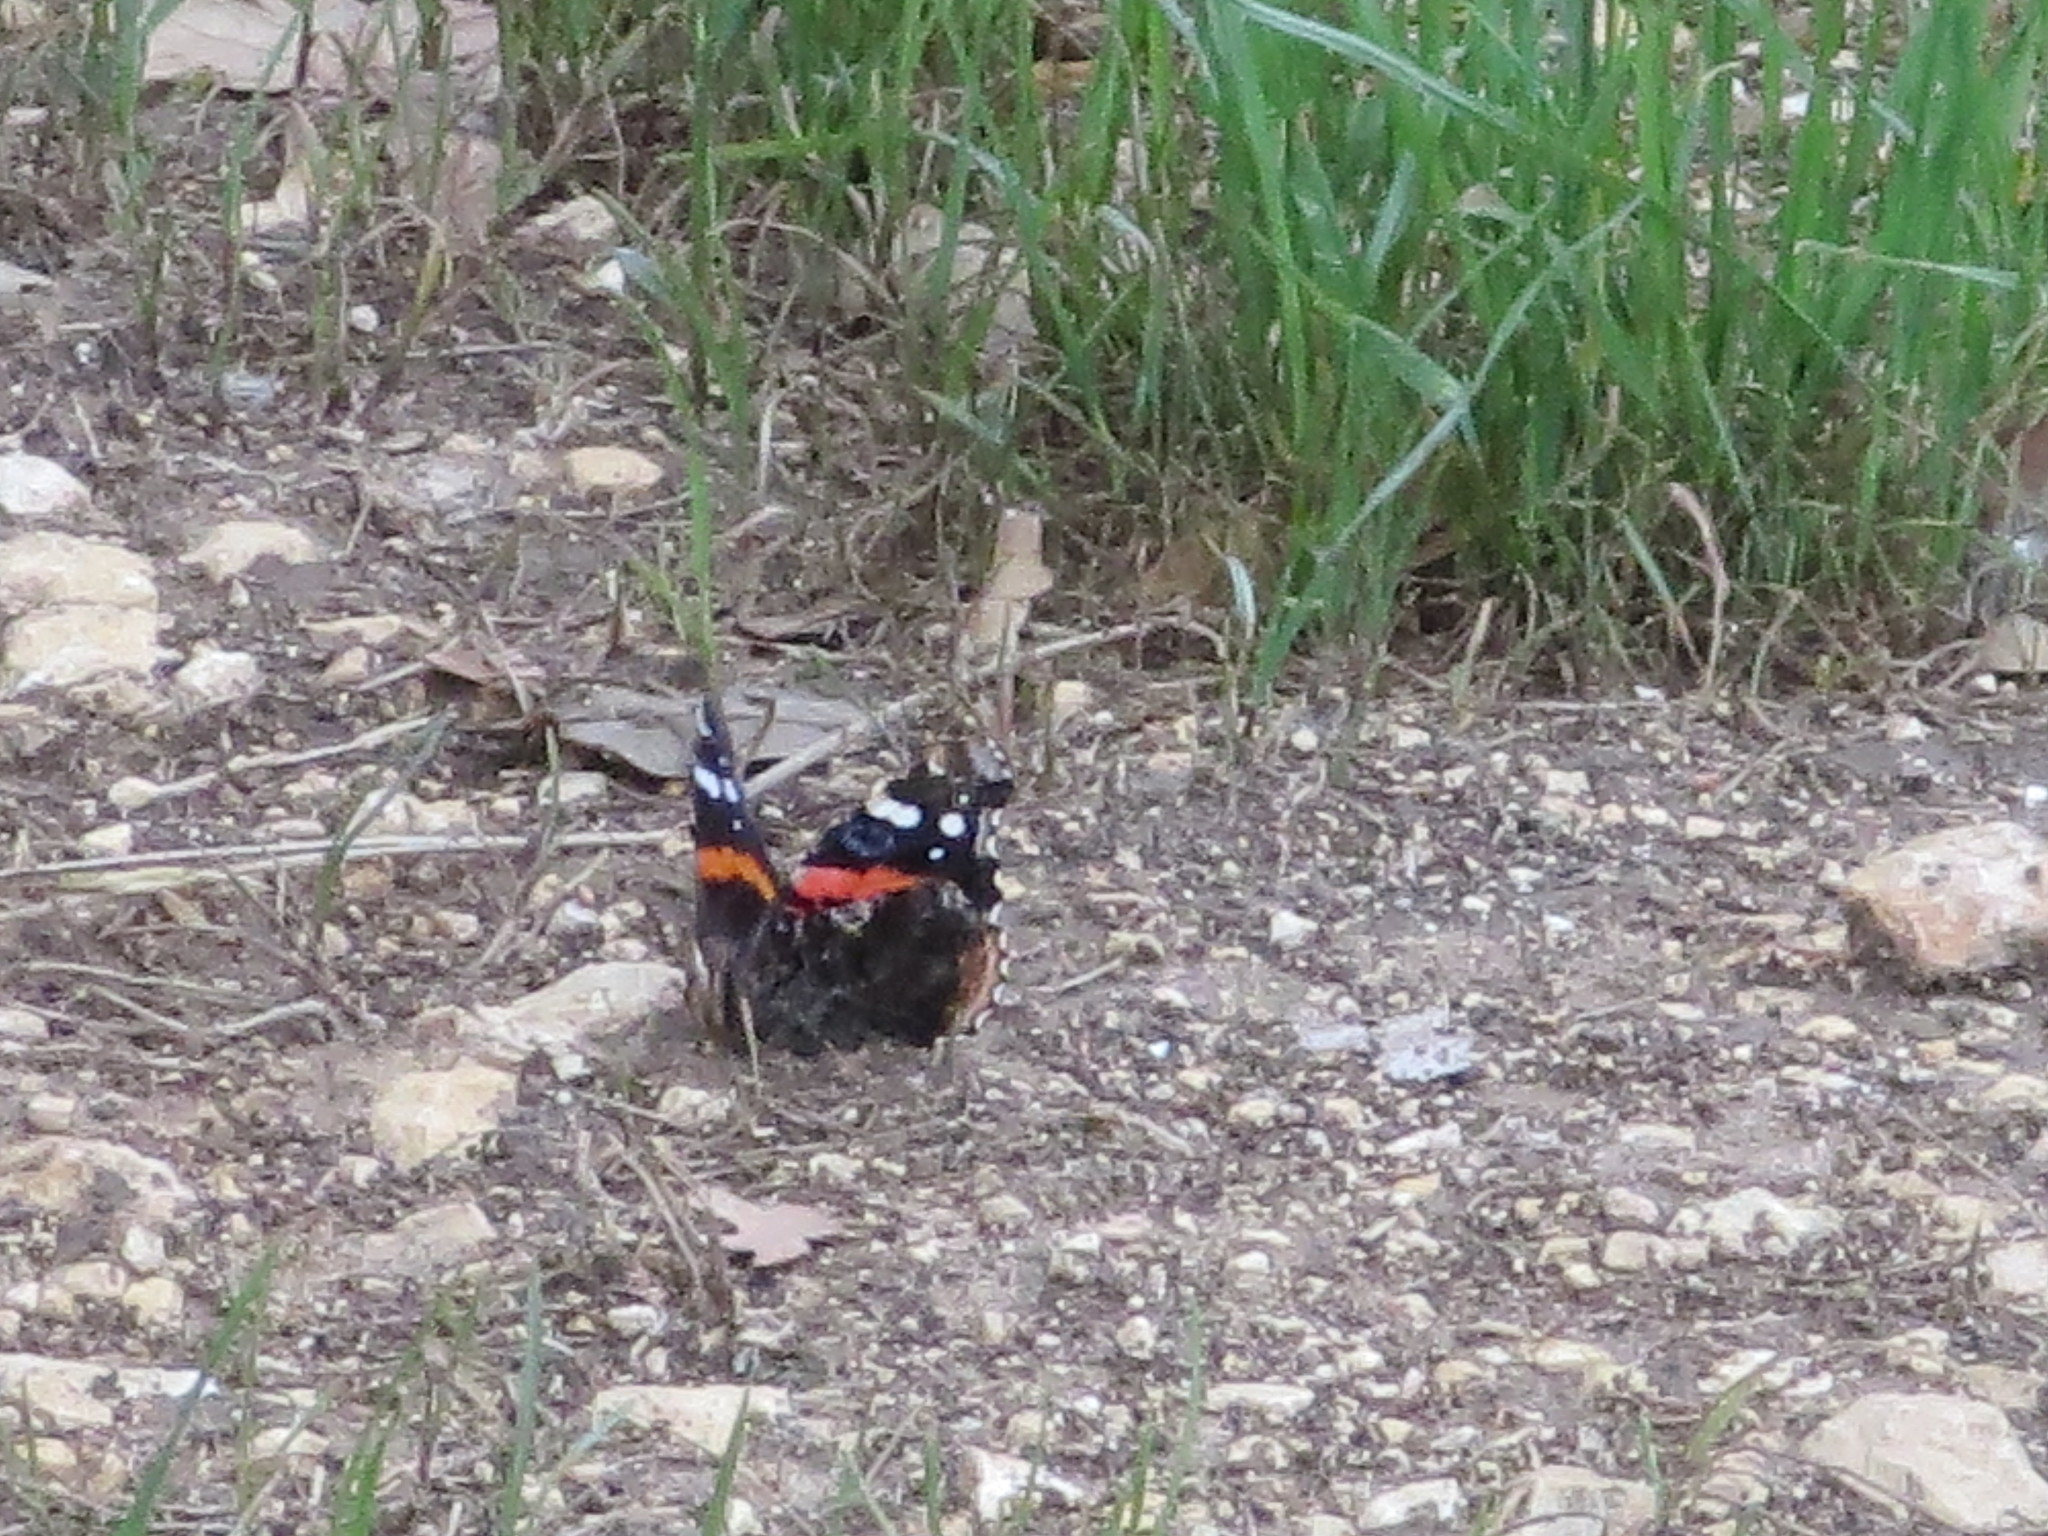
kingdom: Animalia
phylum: Arthropoda
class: Insecta
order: Lepidoptera
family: Nymphalidae
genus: Vanessa
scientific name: Vanessa atalanta
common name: Red admiral
